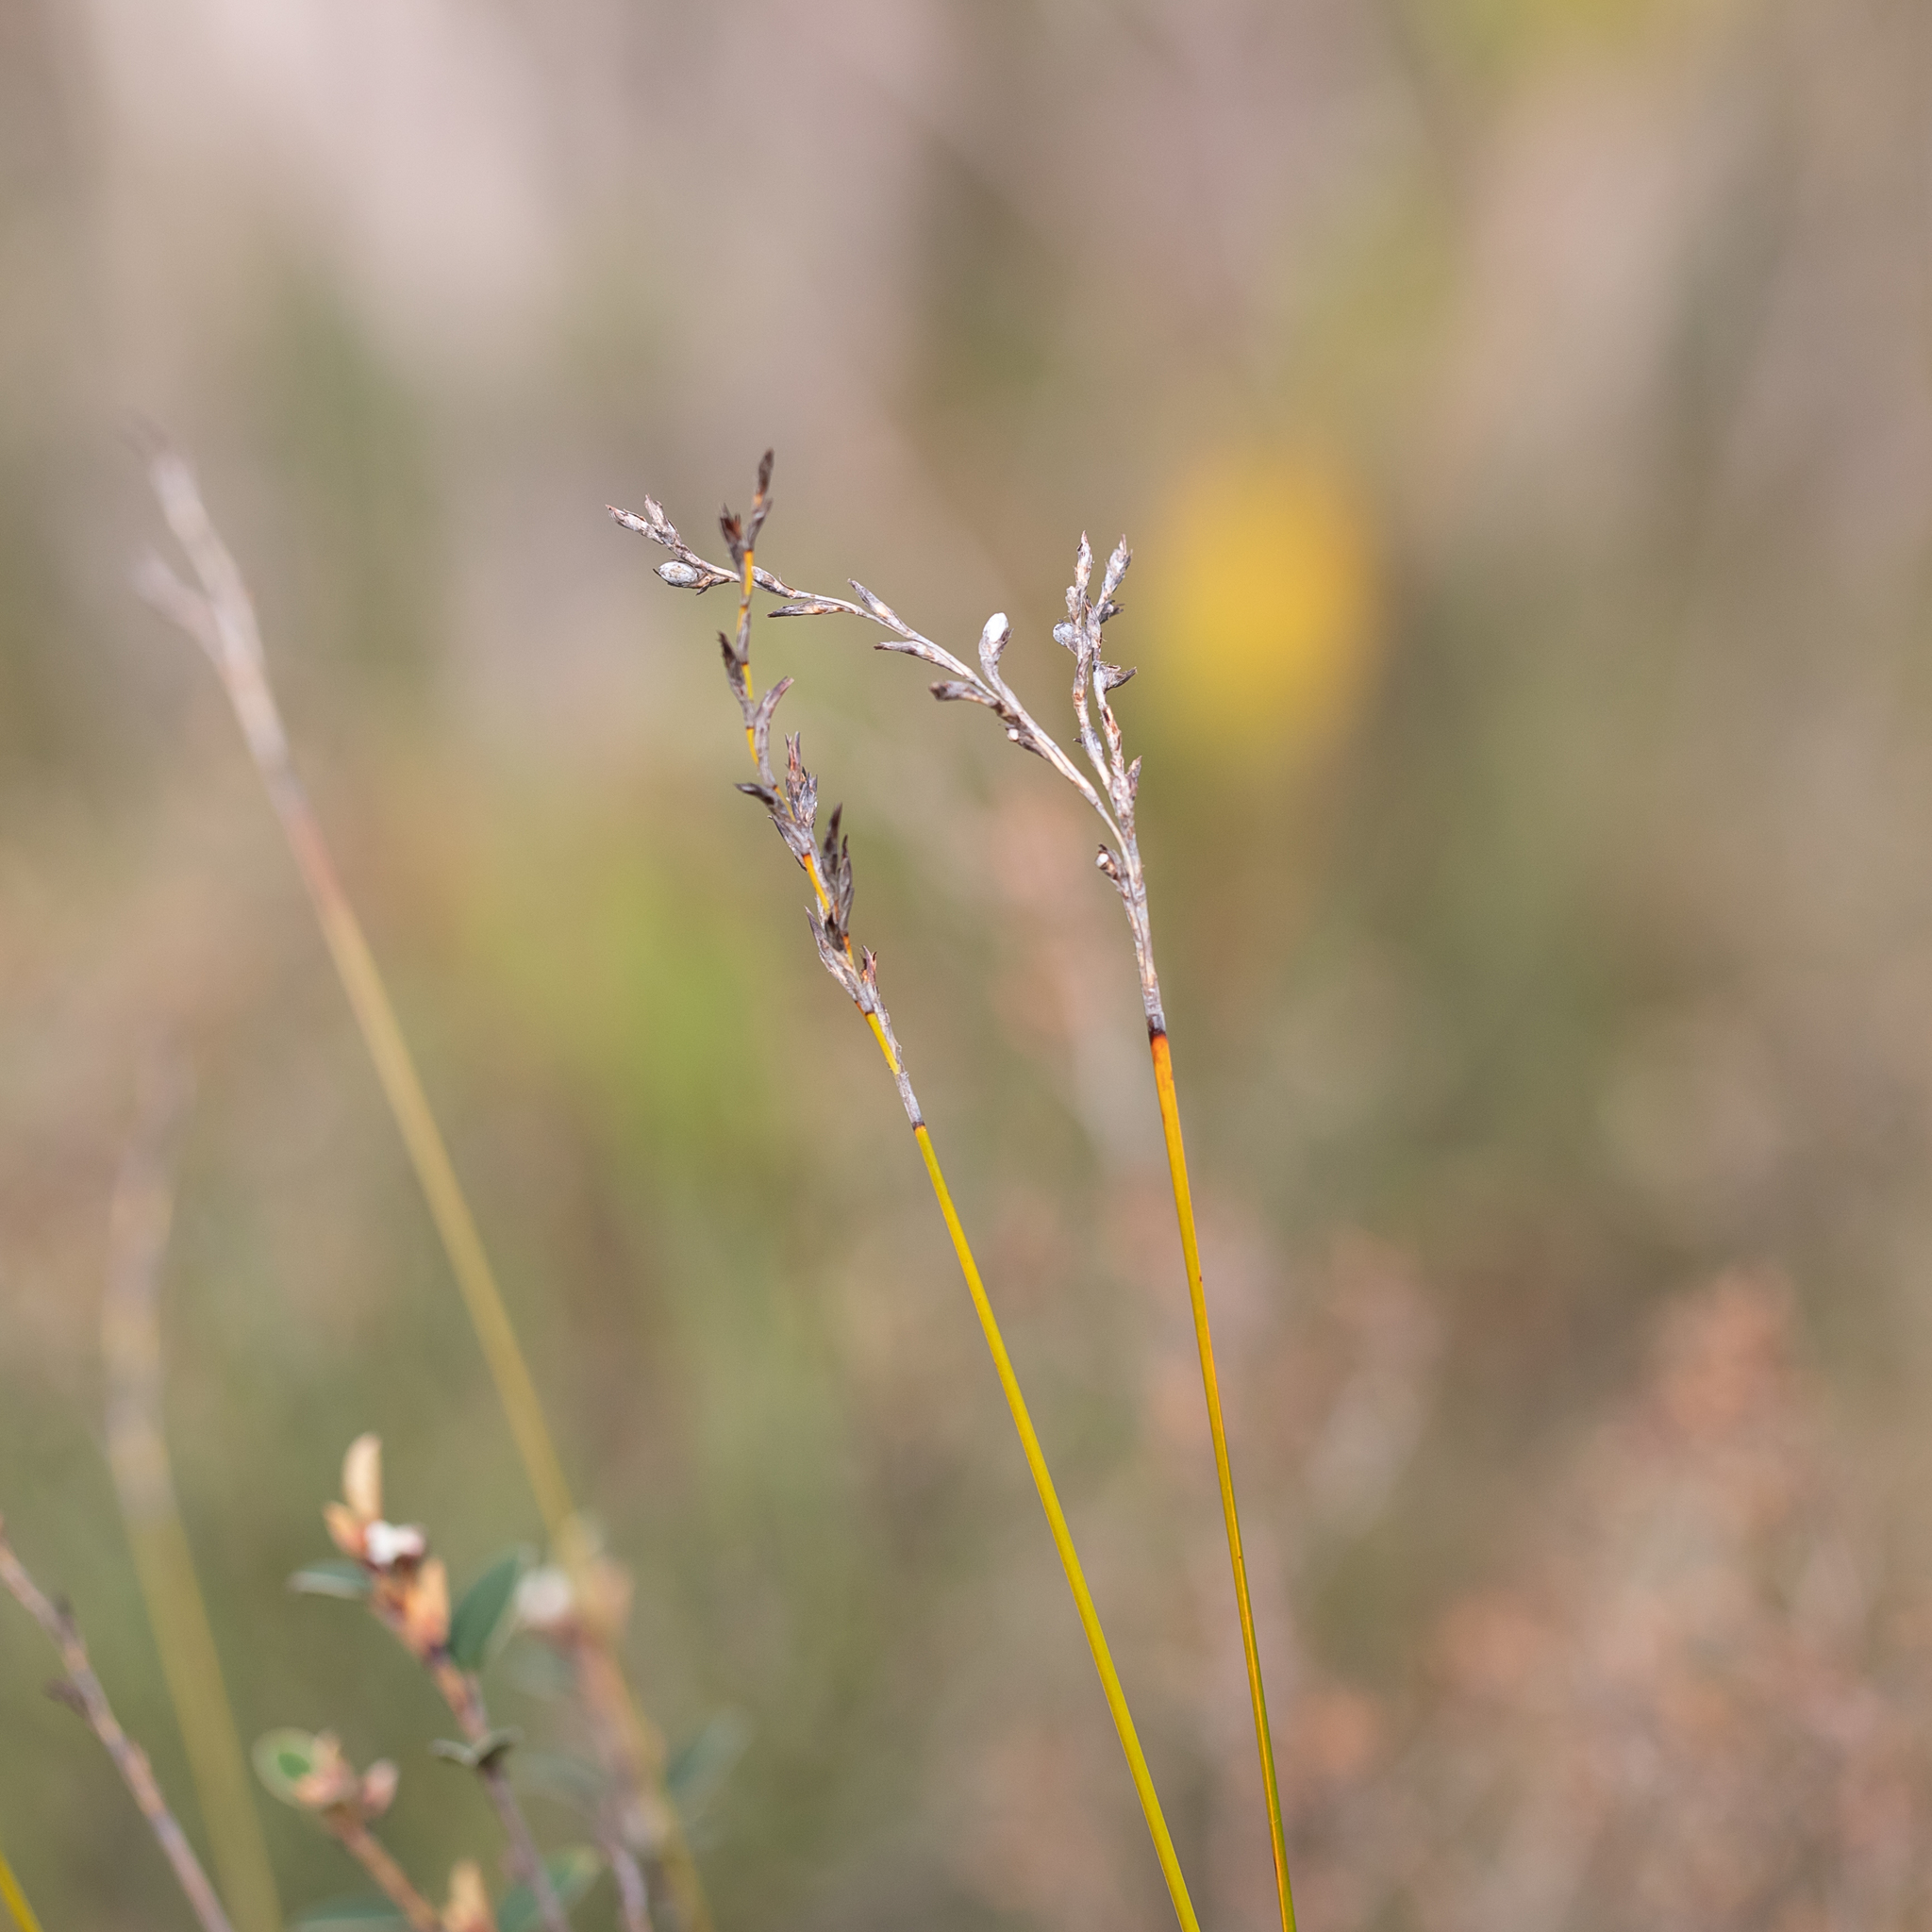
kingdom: Plantae
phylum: Tracheophyta
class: Liliopsida
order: Poales
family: Cyperaceae
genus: Lepidosperma
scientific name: Lepidosperma semiteres
